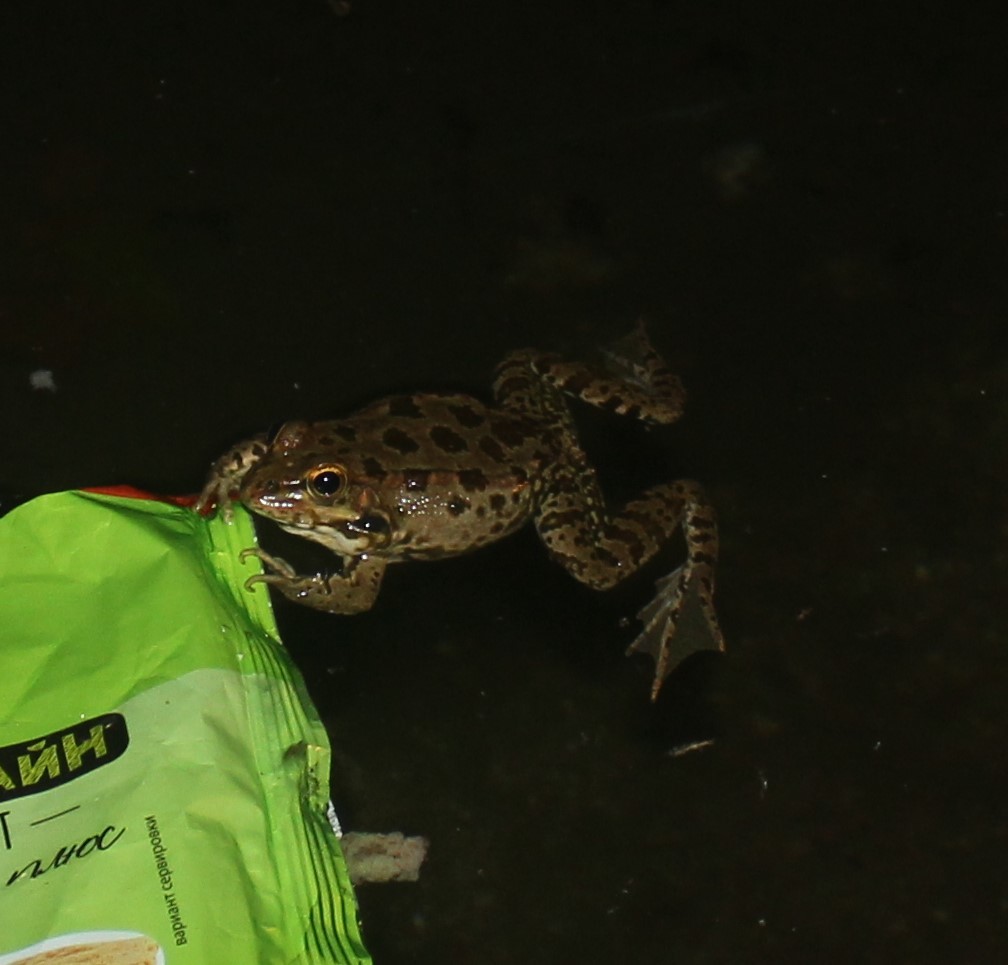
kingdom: Animalia
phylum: Chordata
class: Amphibia
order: Anura
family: Ranidae
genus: Pelophylax
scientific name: Pelophylax ridibundus
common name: Marsh frog
